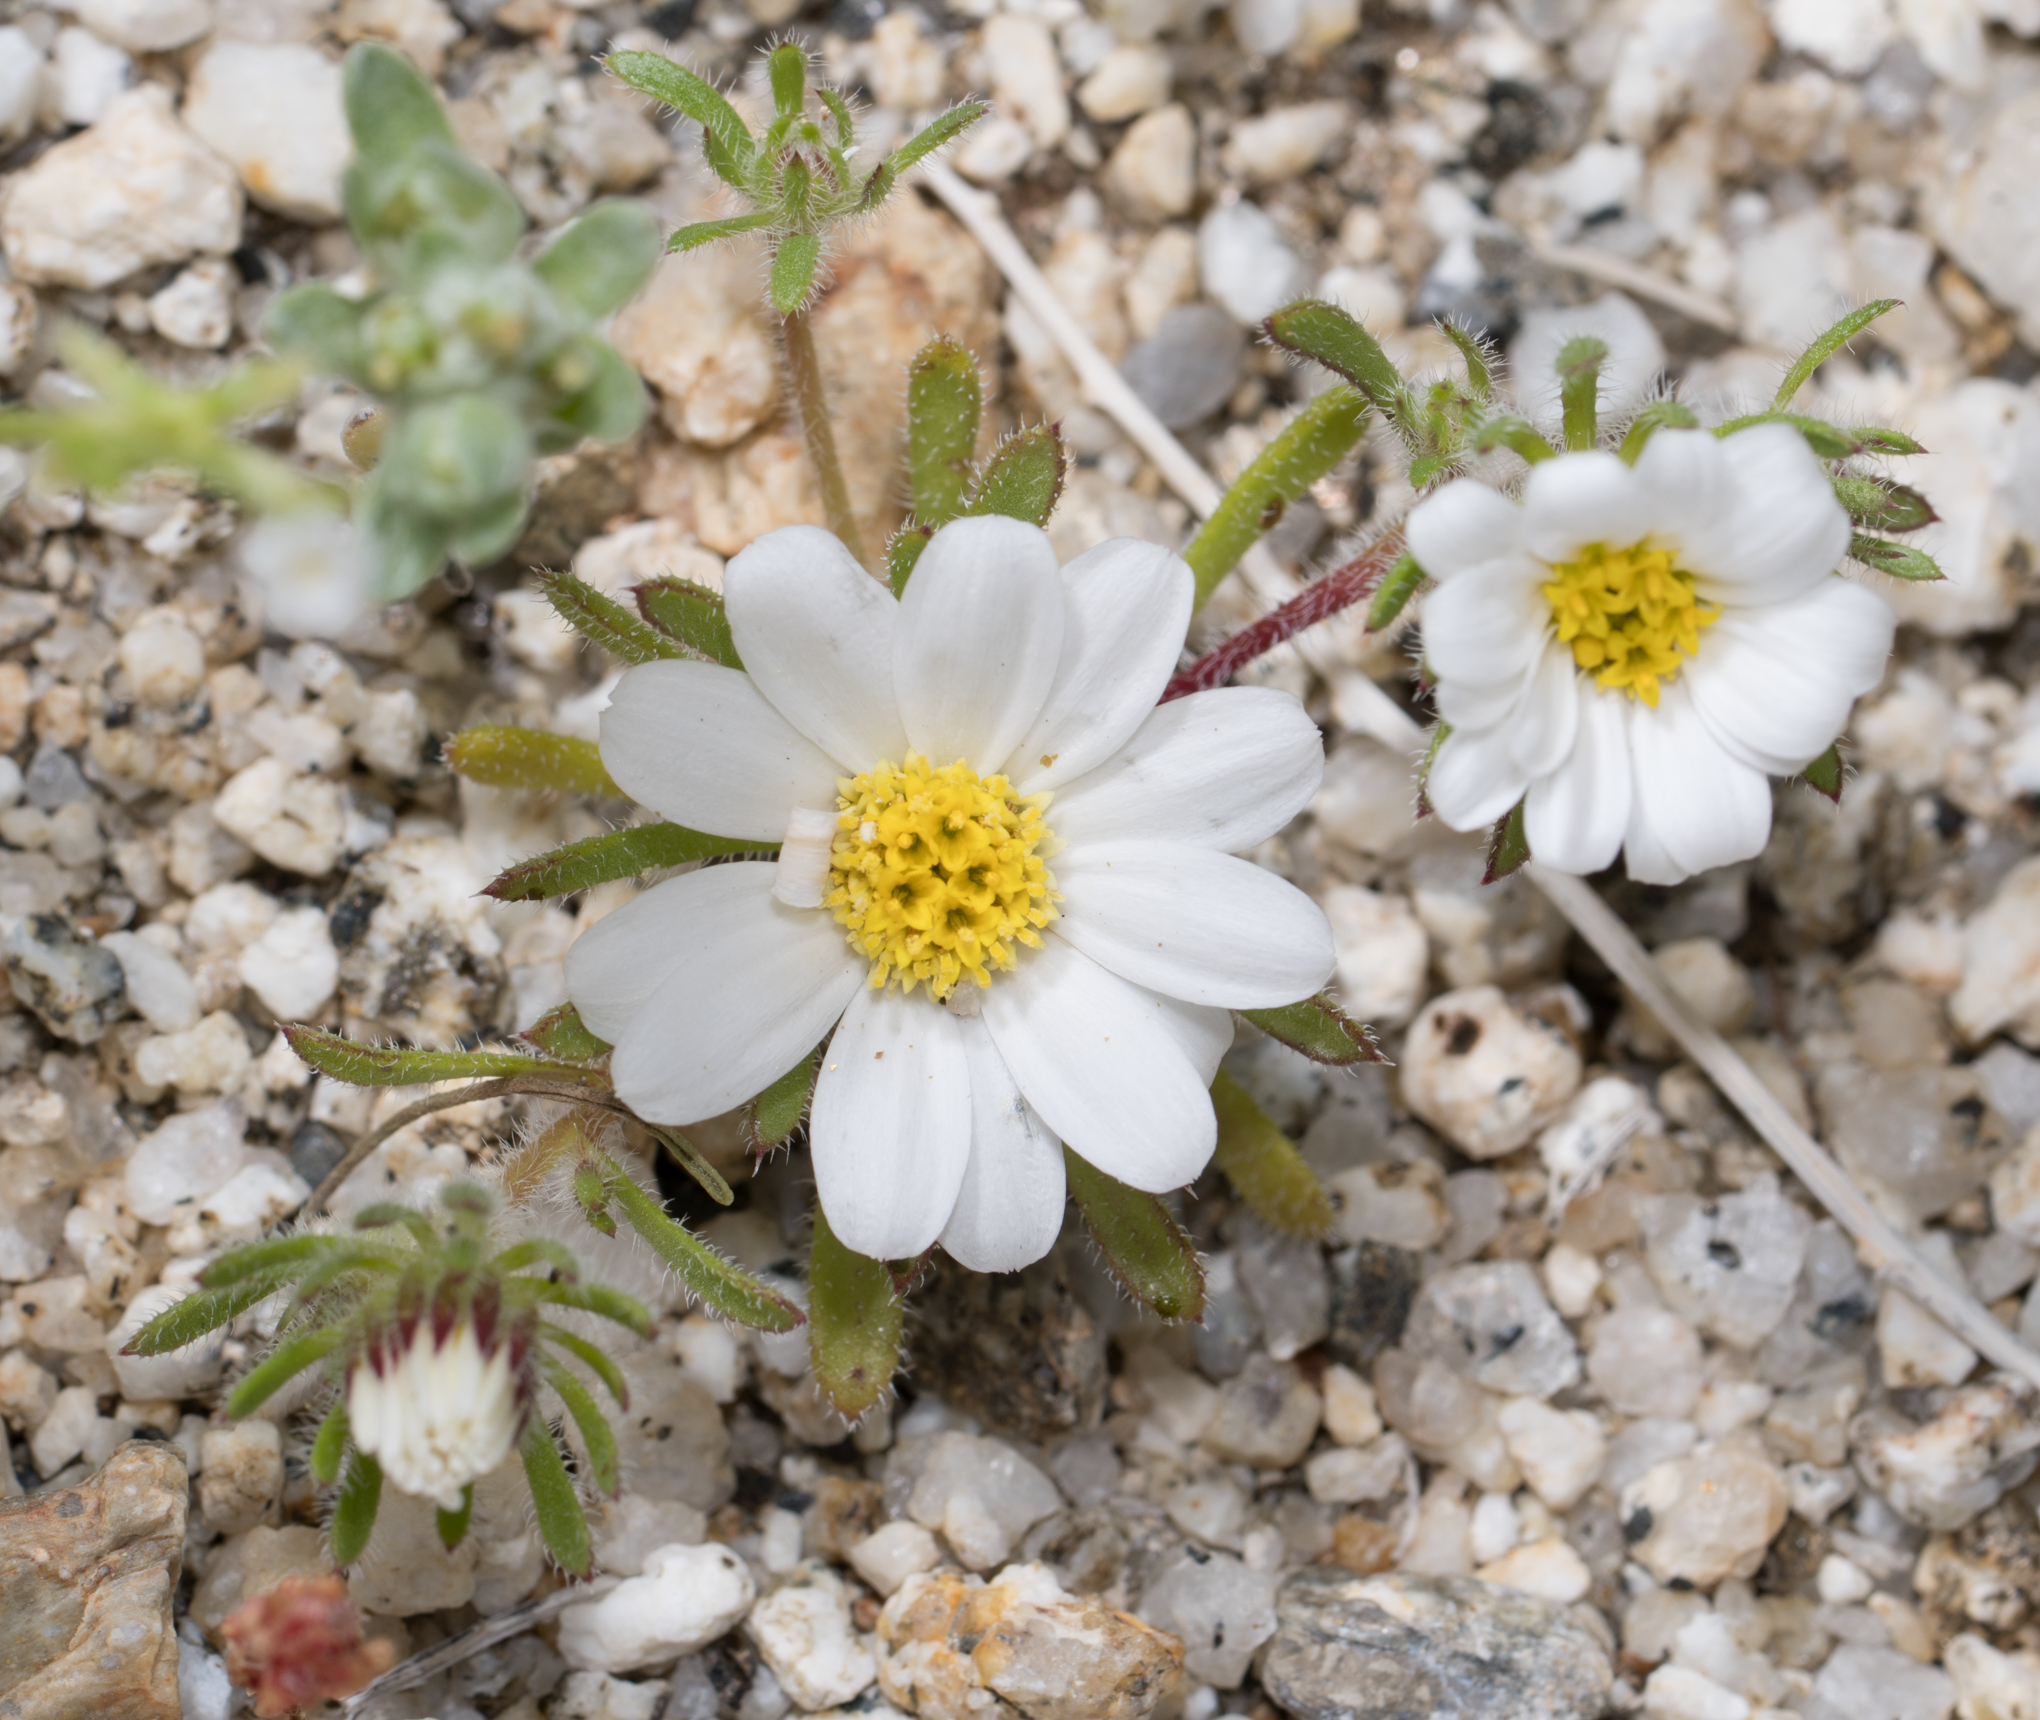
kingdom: Plantae
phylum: Tracheophyta
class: Magnoliopsida
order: Asterales
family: Asteraceae
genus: Monoptilon
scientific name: Monoptilon bellioides
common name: Bristly desertstar
